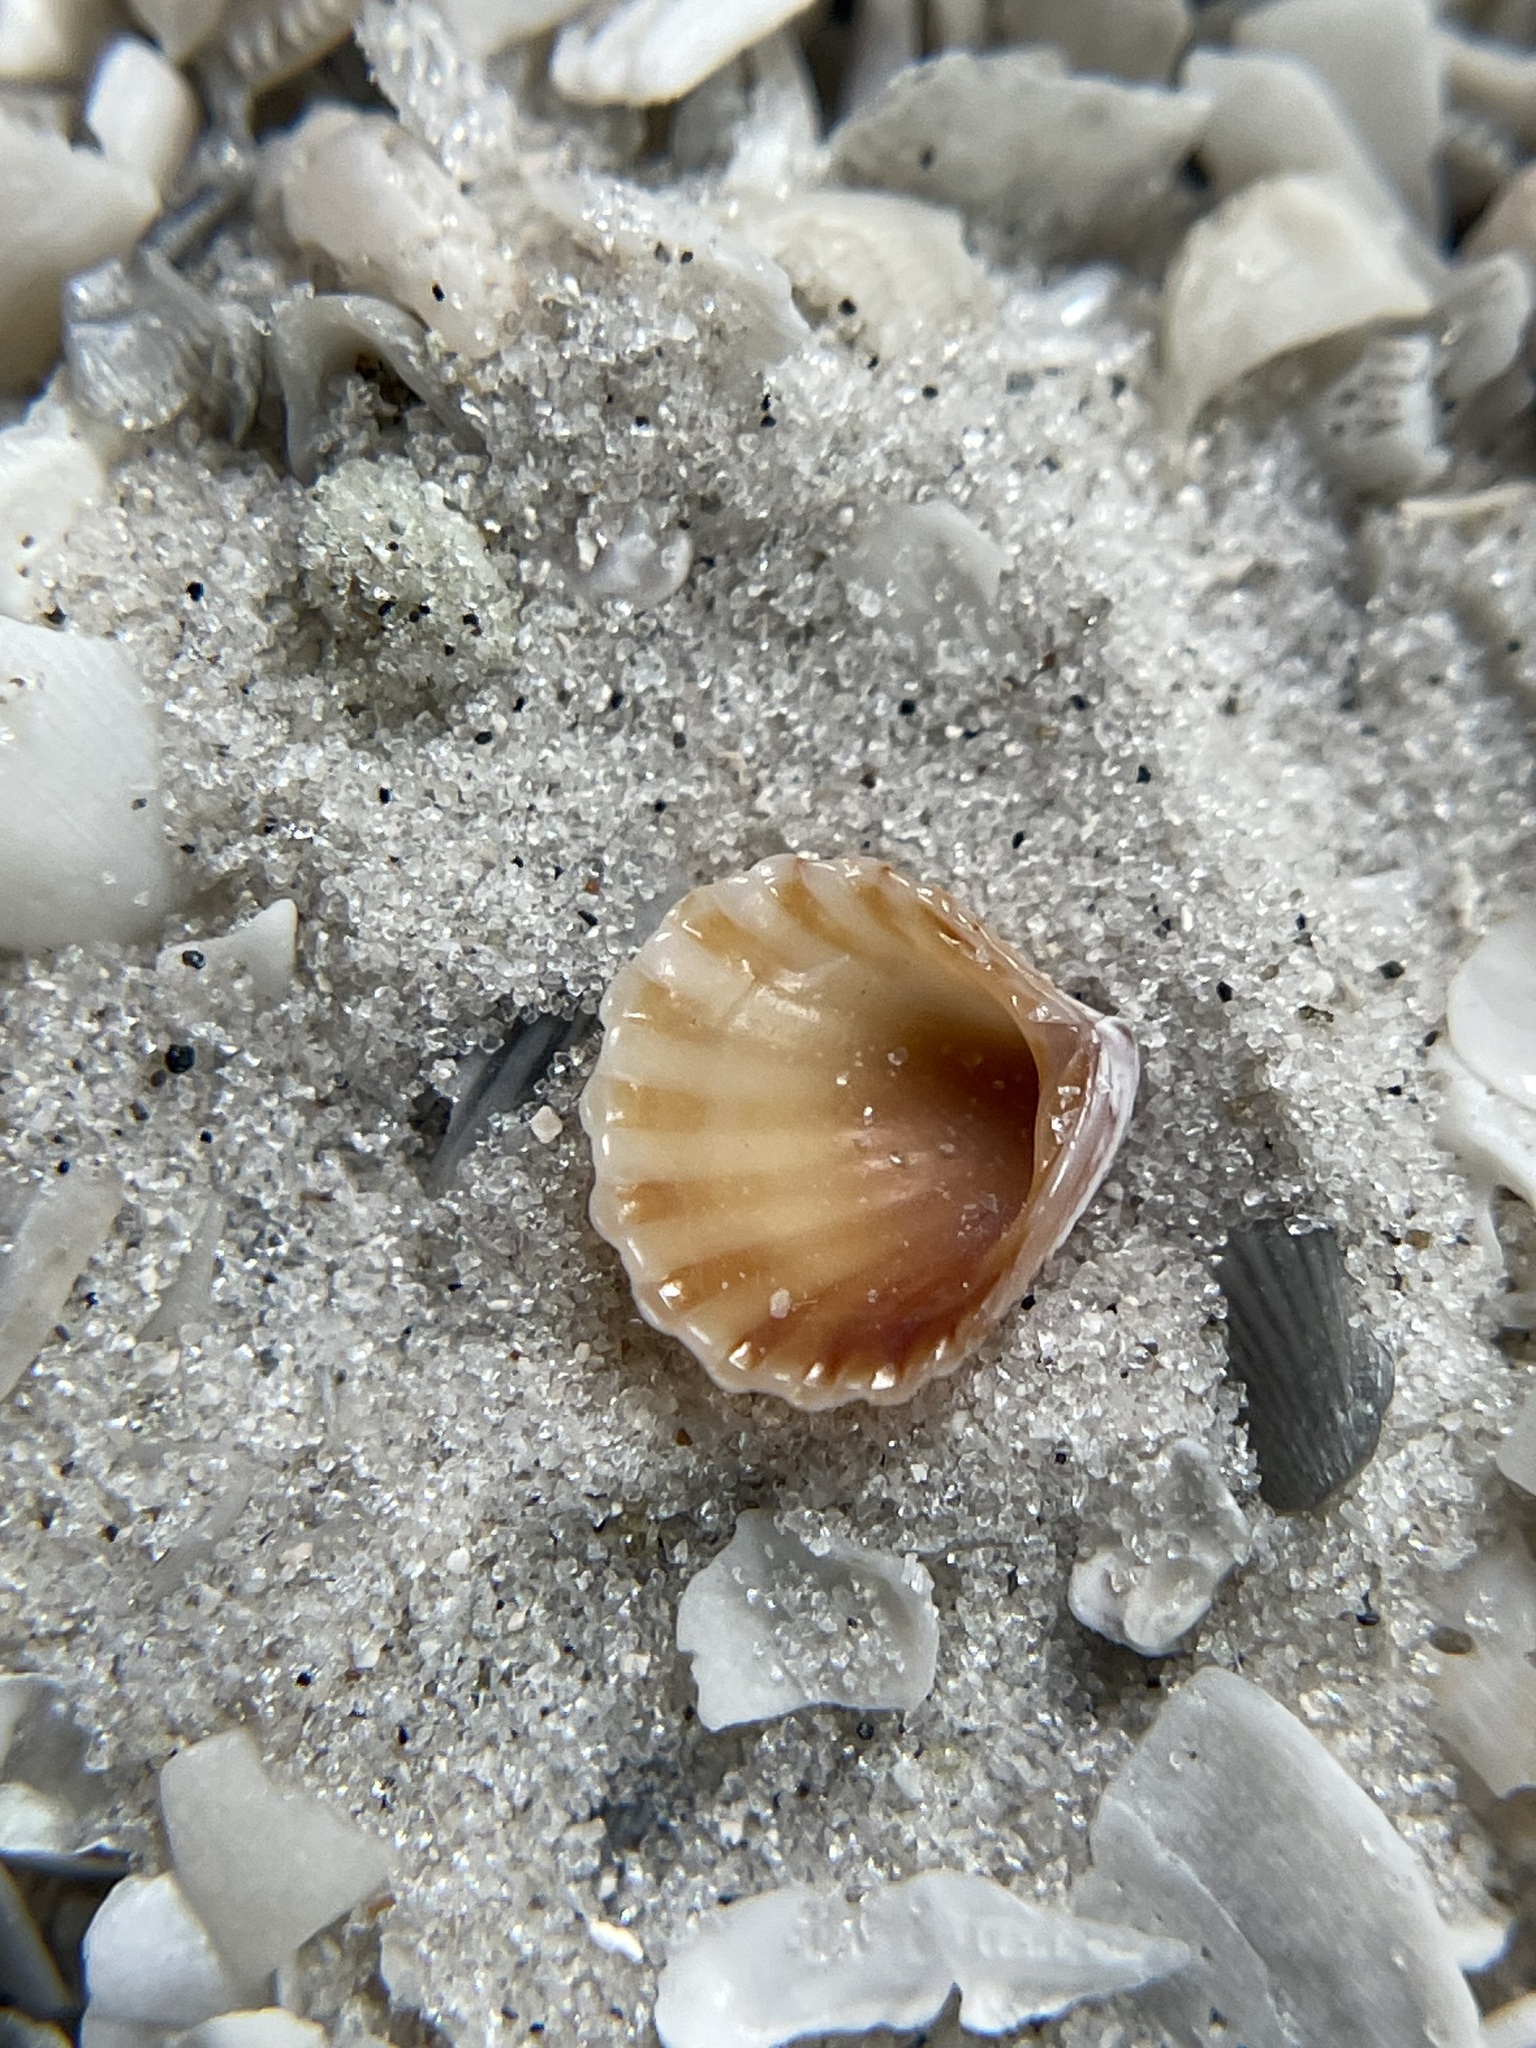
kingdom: Animalia
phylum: Mollusca
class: Bivalvia
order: Carditida
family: Carditidae
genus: Pleuromeris
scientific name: Pleuromeris tridentata
